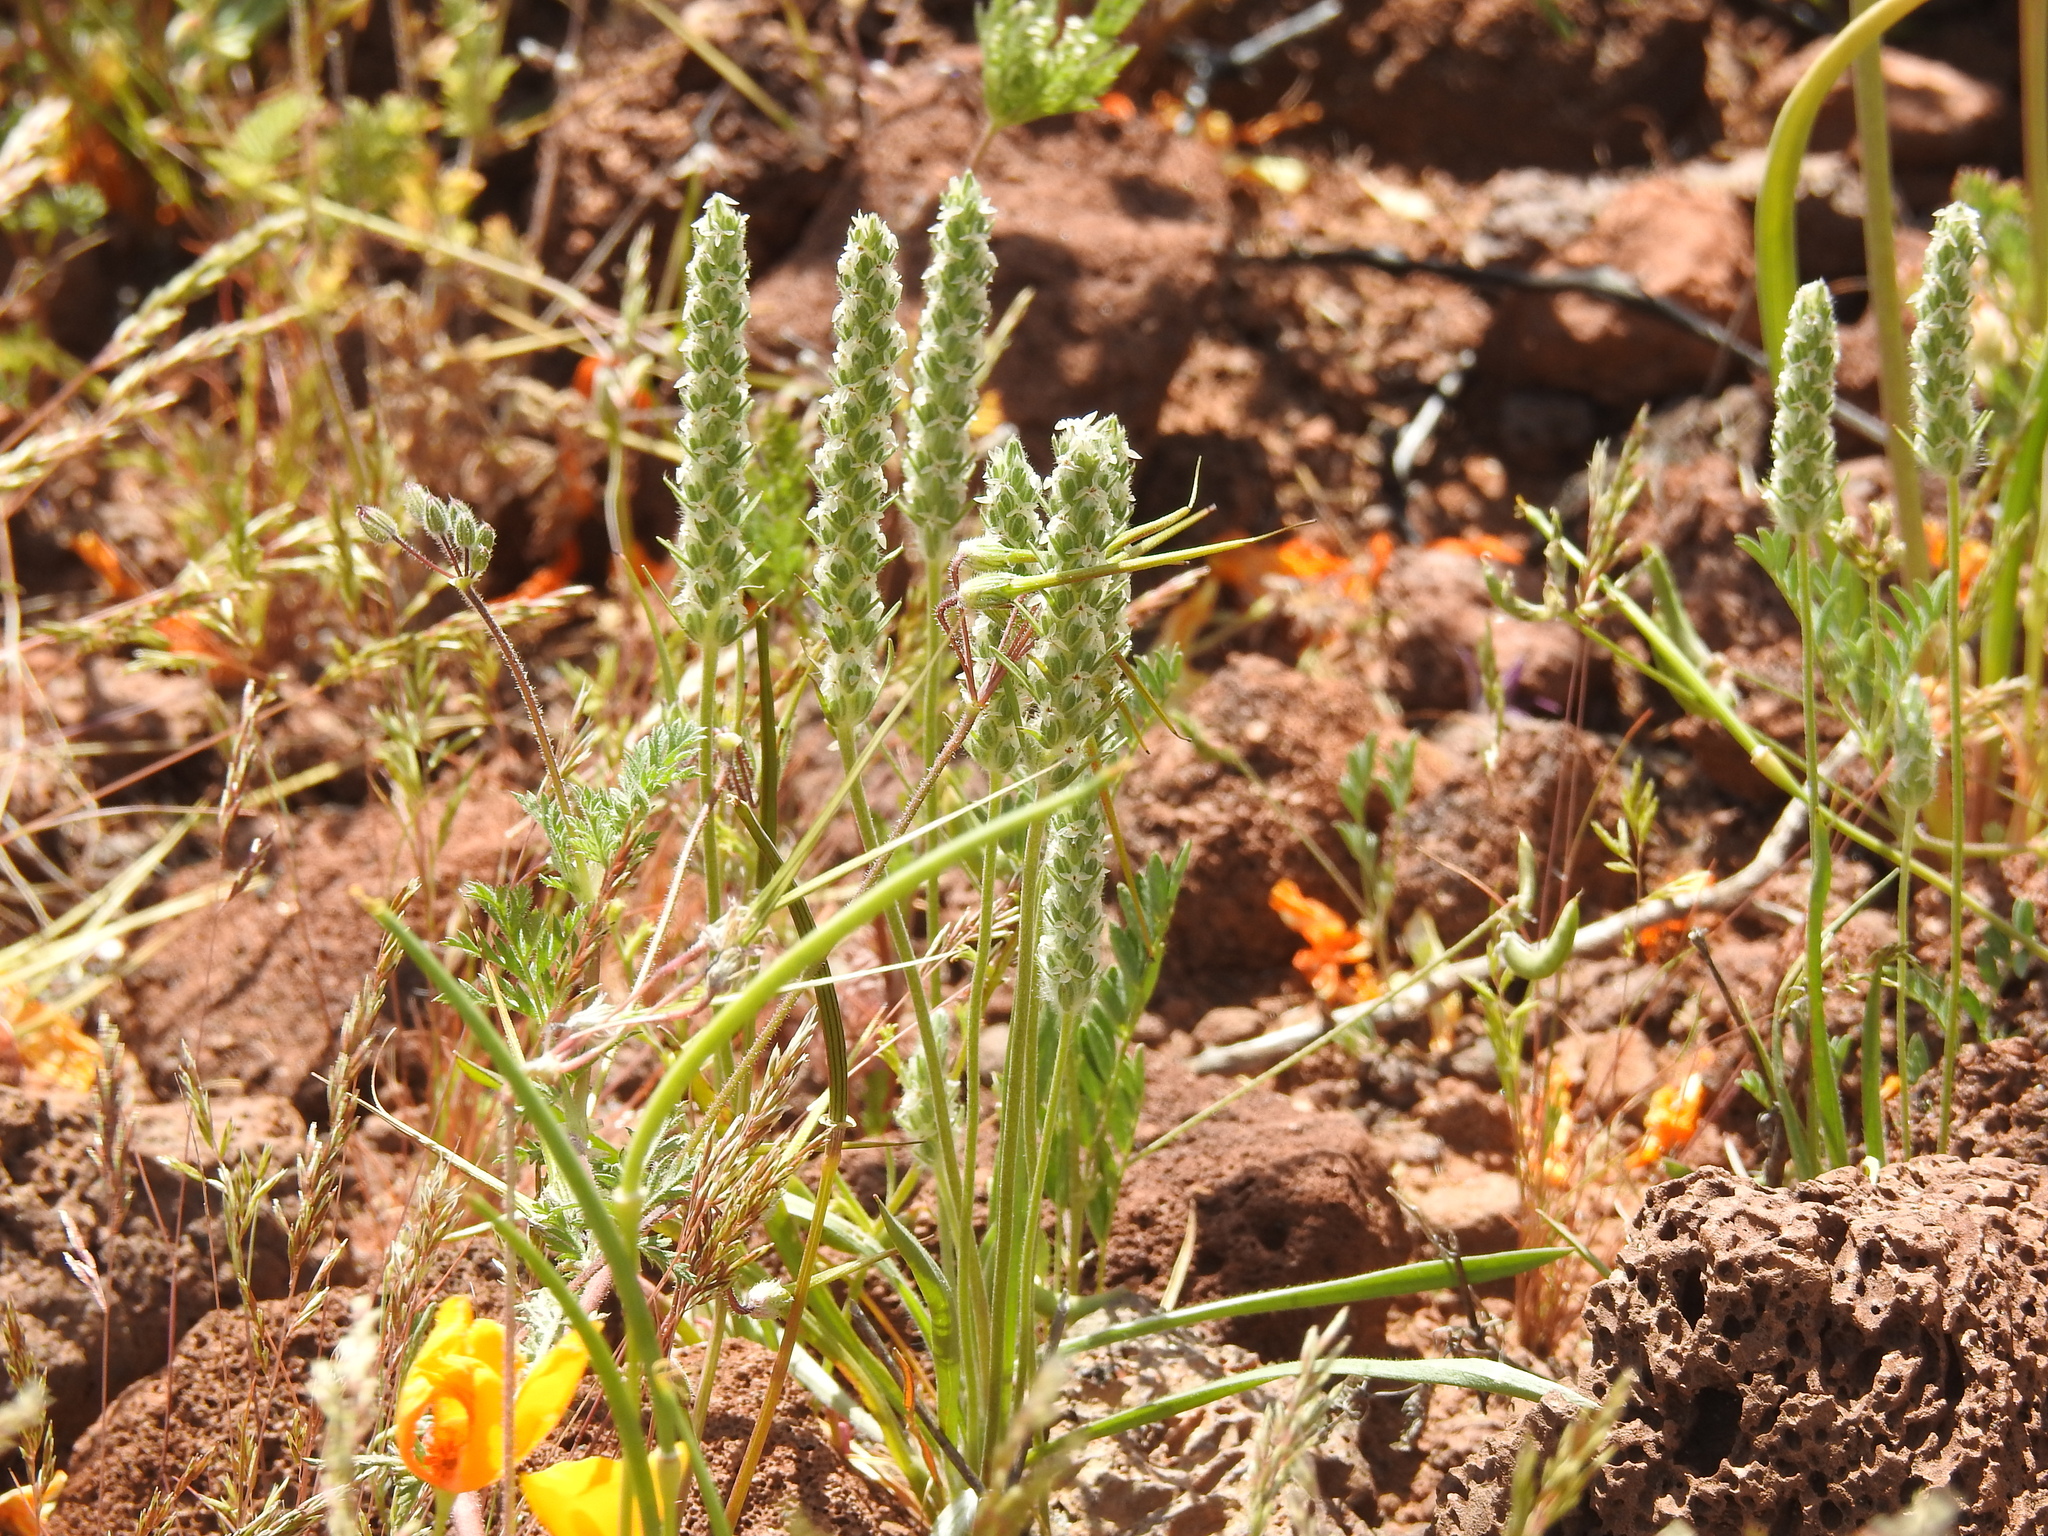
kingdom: Plantae
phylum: Tracheophyta
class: Magnoliopsida
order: Lamiales
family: Plantaginaceae
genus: Plantago
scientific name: Plantago patagonica
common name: Patagonia indian-wheat
